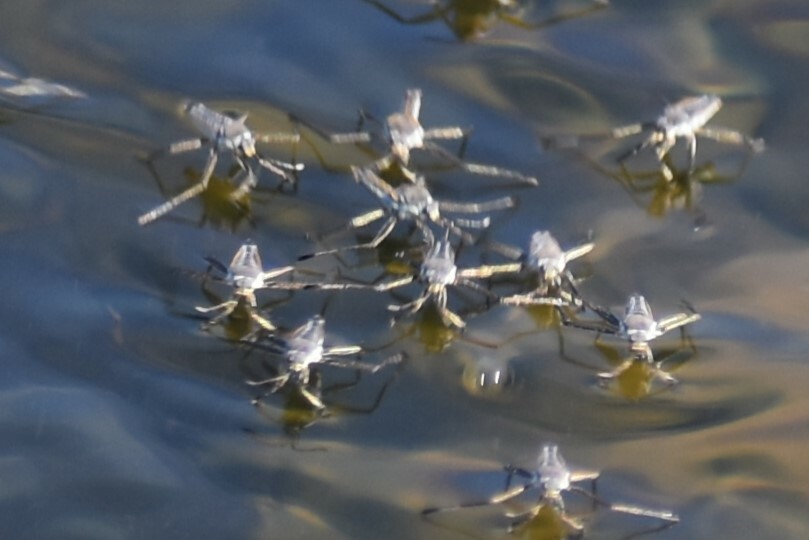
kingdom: Animalia
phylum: Arthropoda
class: Insecta
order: Hemiptera
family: Veliidae
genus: Rhagovelia
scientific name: Rhagovelia distincta
